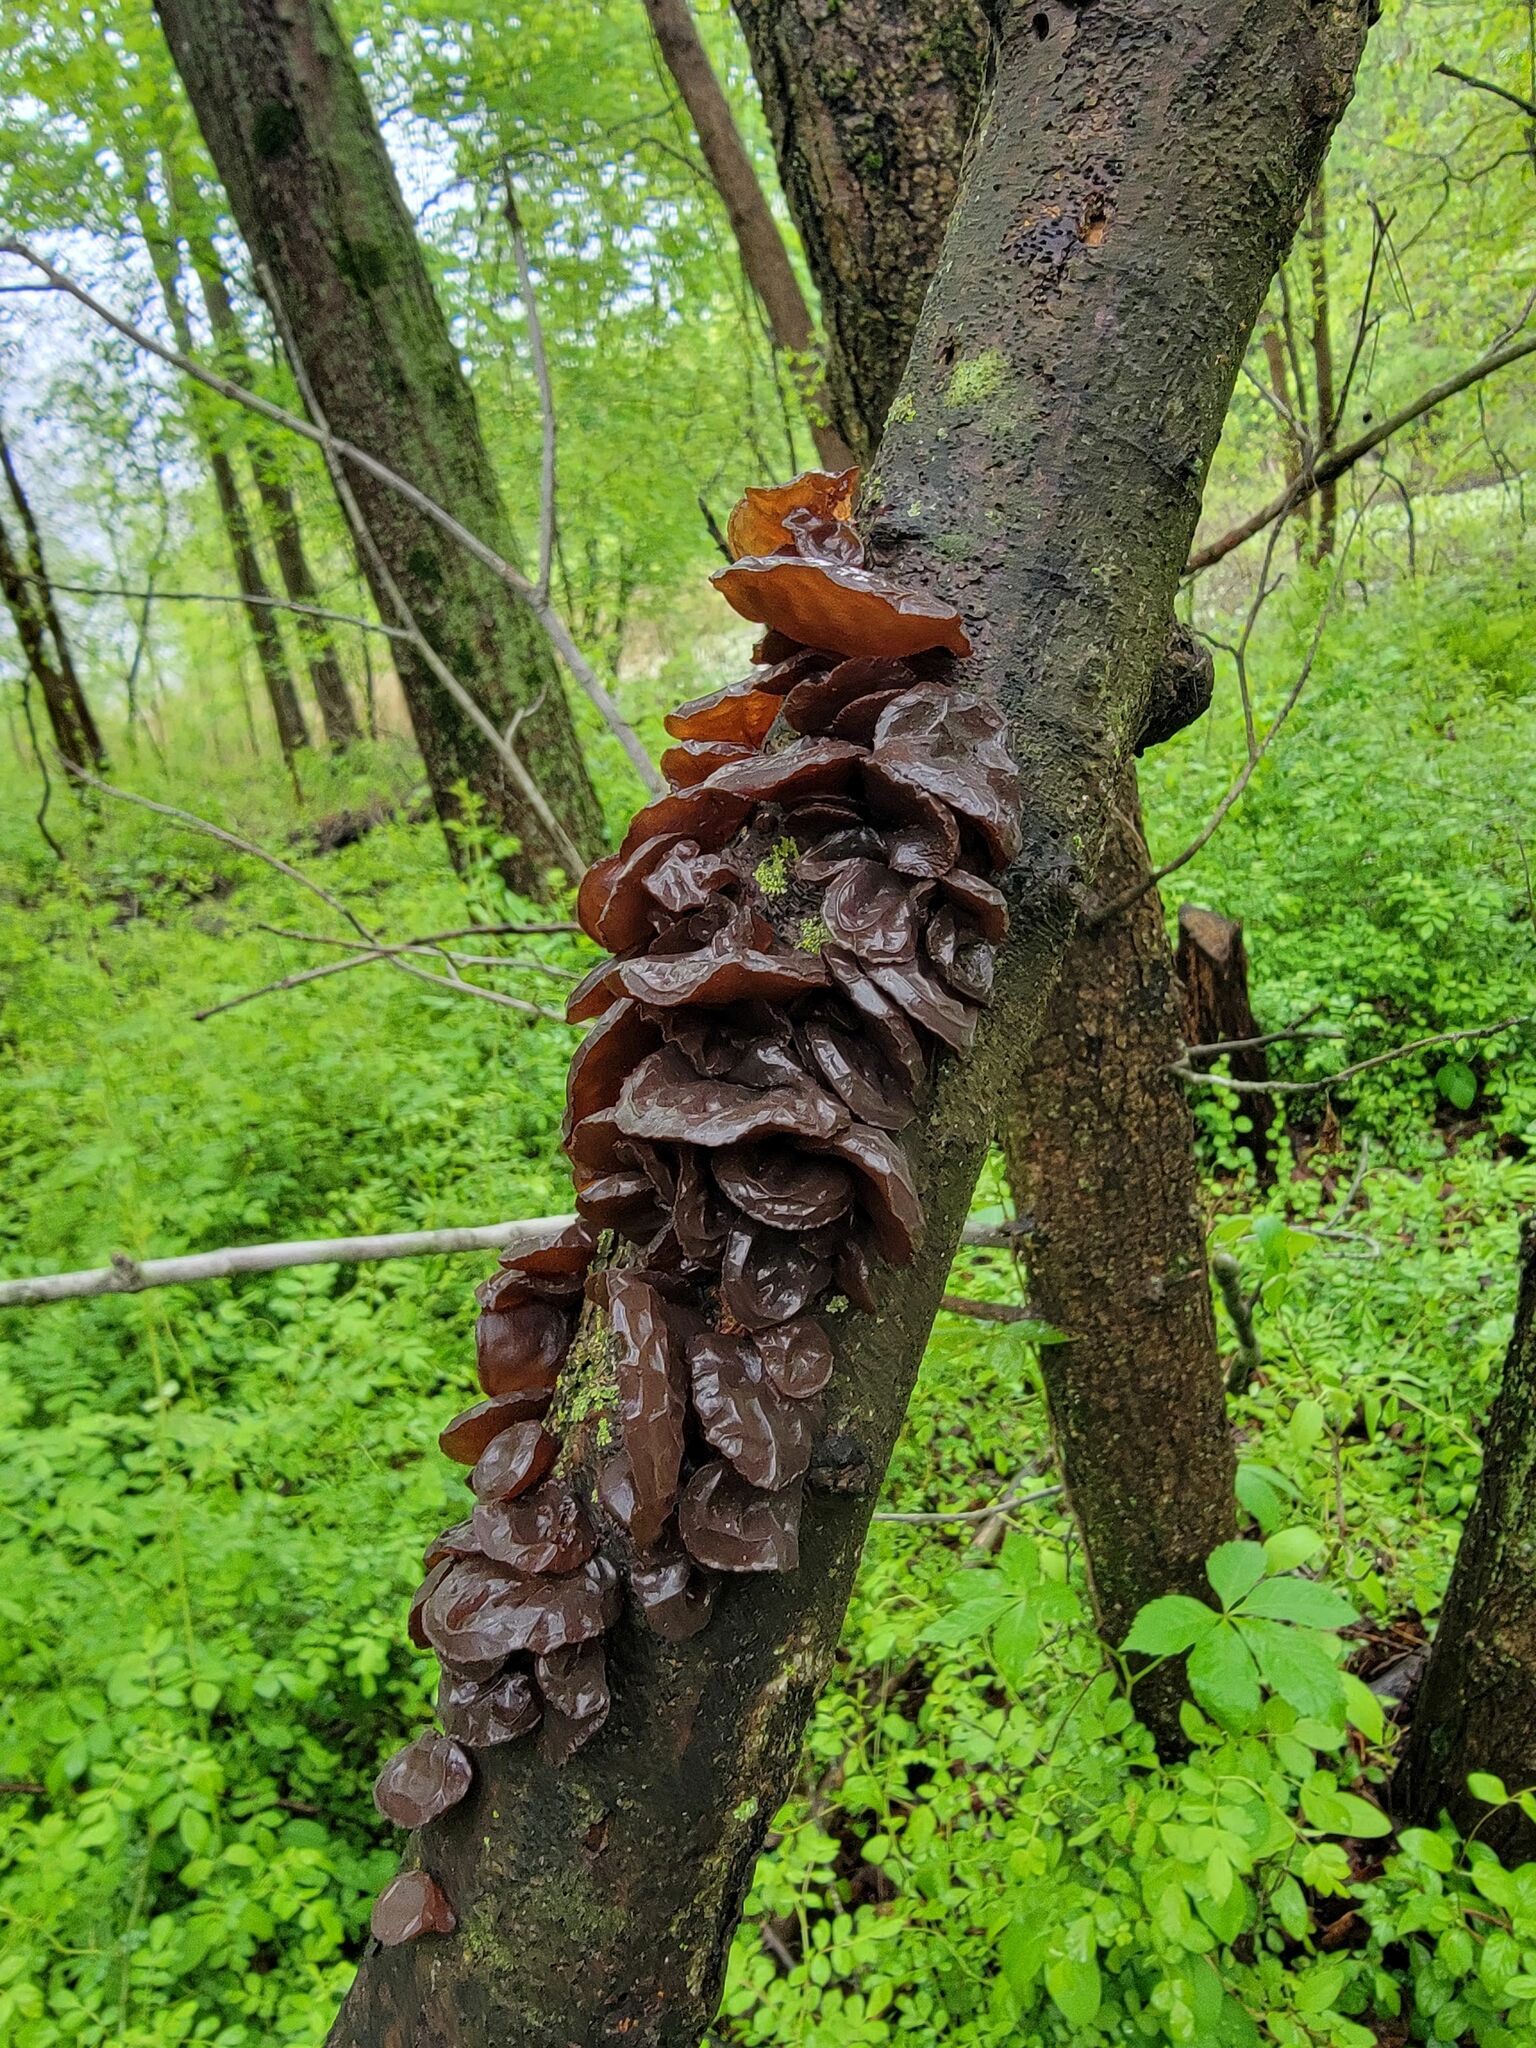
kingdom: Fungi
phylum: Basidiomycota
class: Agaricomycetes
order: Auriculariales
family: Auriculariaceae
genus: Exidia
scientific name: Exidia
